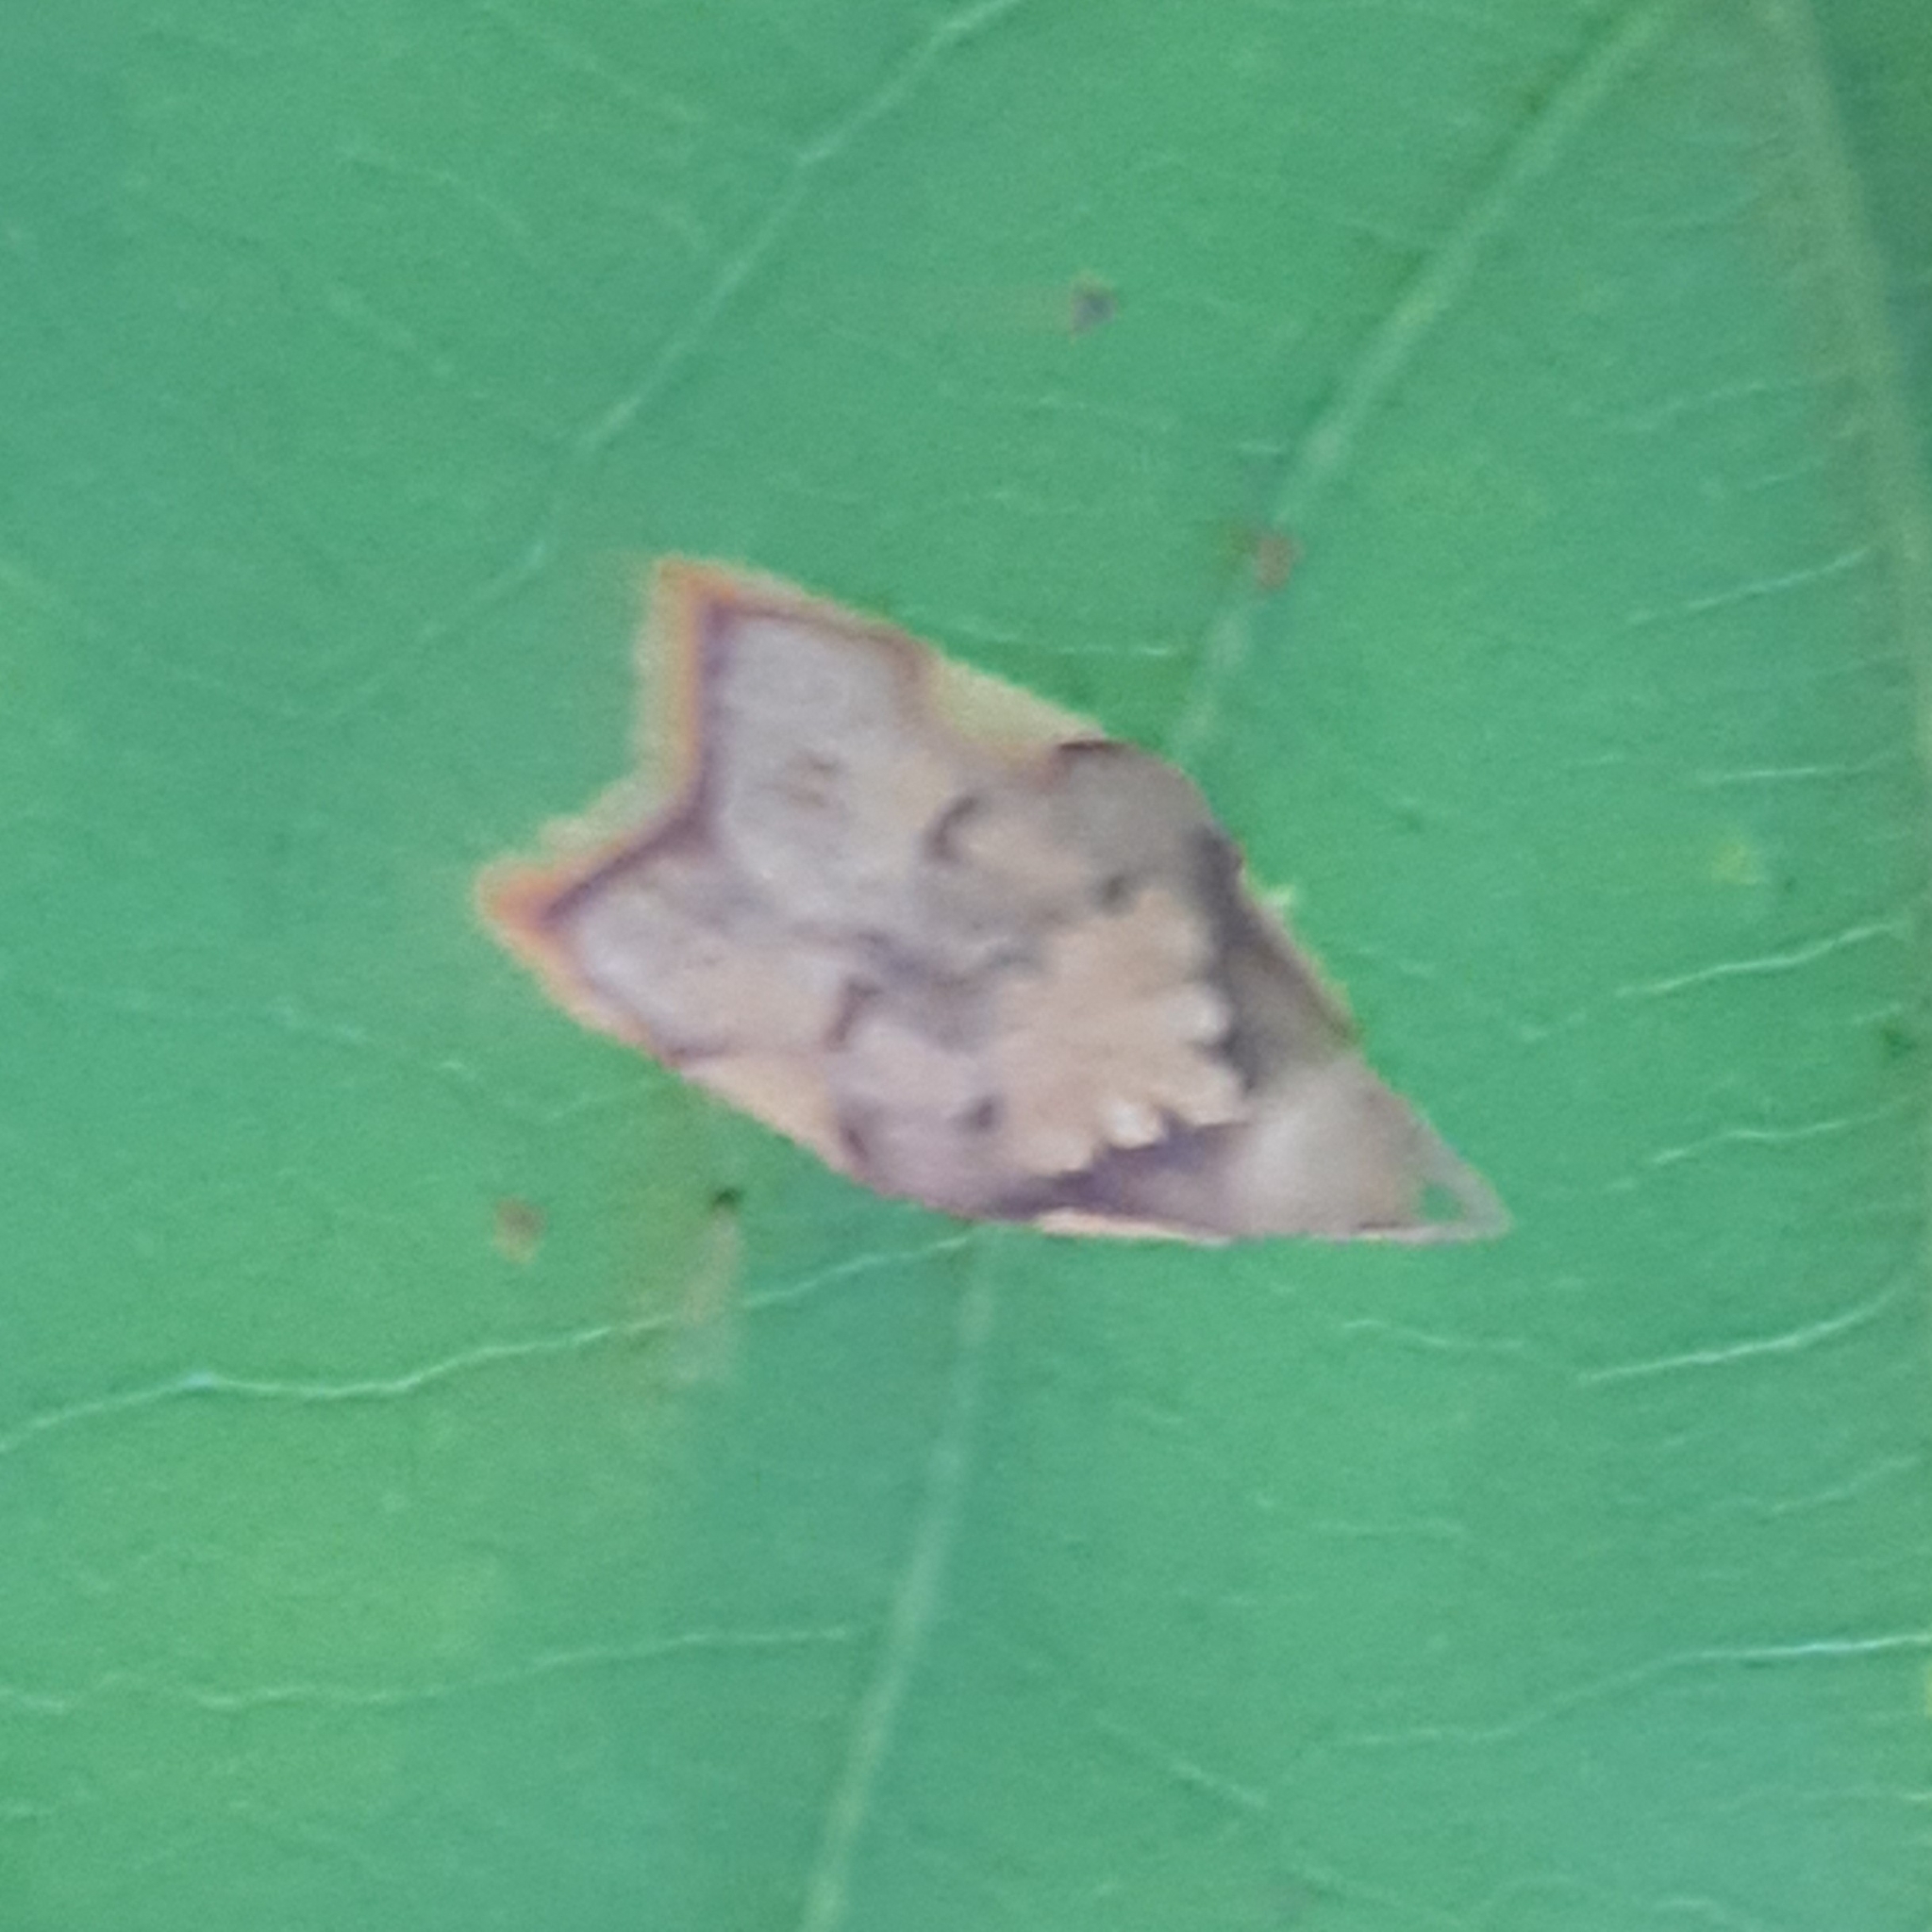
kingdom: Animalia
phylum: Arthropoda
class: Insecta
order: Lepidoptera
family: Peleopodidae
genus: Carcina
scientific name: Carcina quercana
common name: Moth
